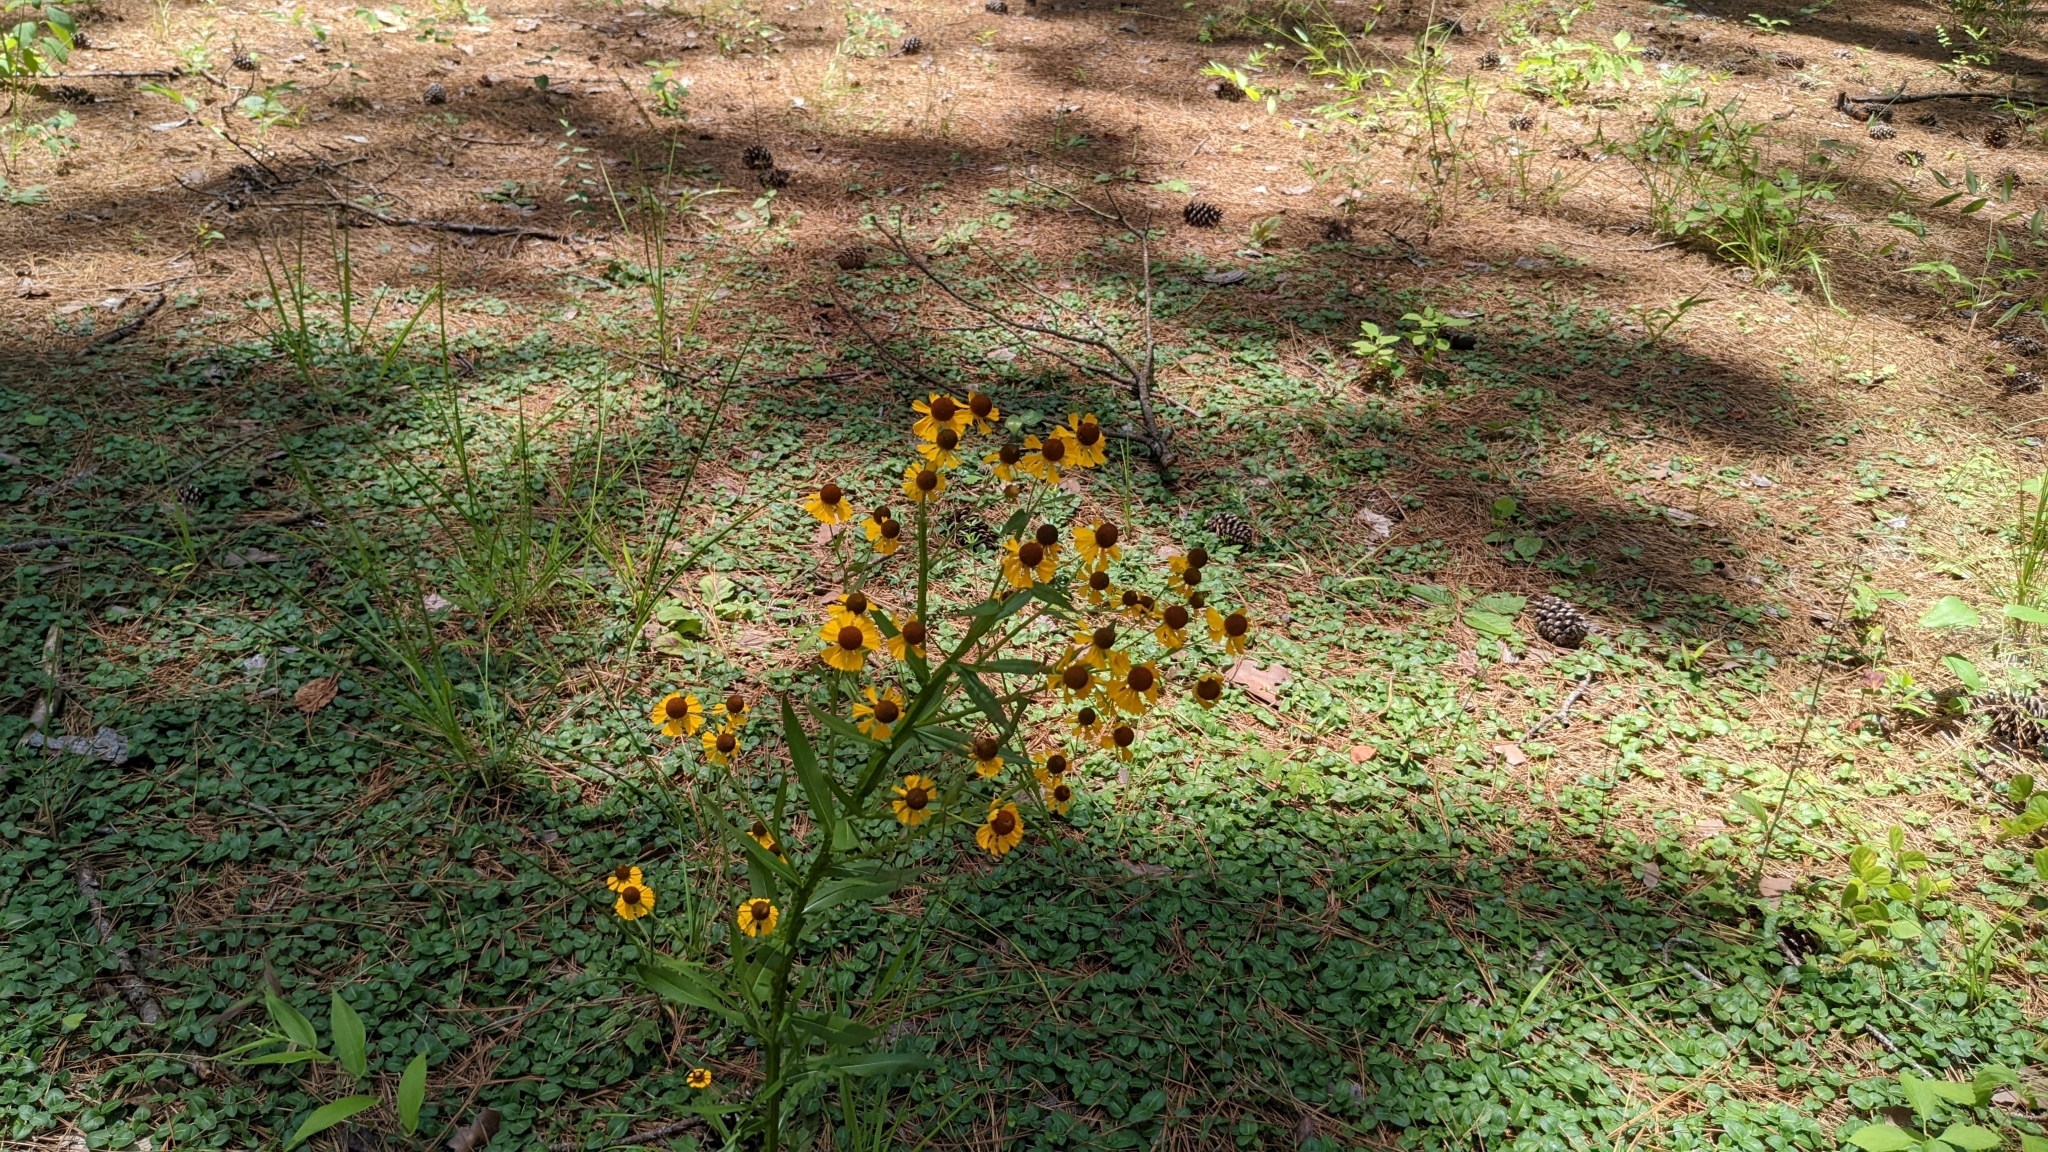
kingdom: Plantae
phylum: Tracheophyta
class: Magnoliopsida
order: Asterales
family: Asteraceae
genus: Helenium
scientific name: Helenium flexuosum
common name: Naked-flowered sneezeweed
